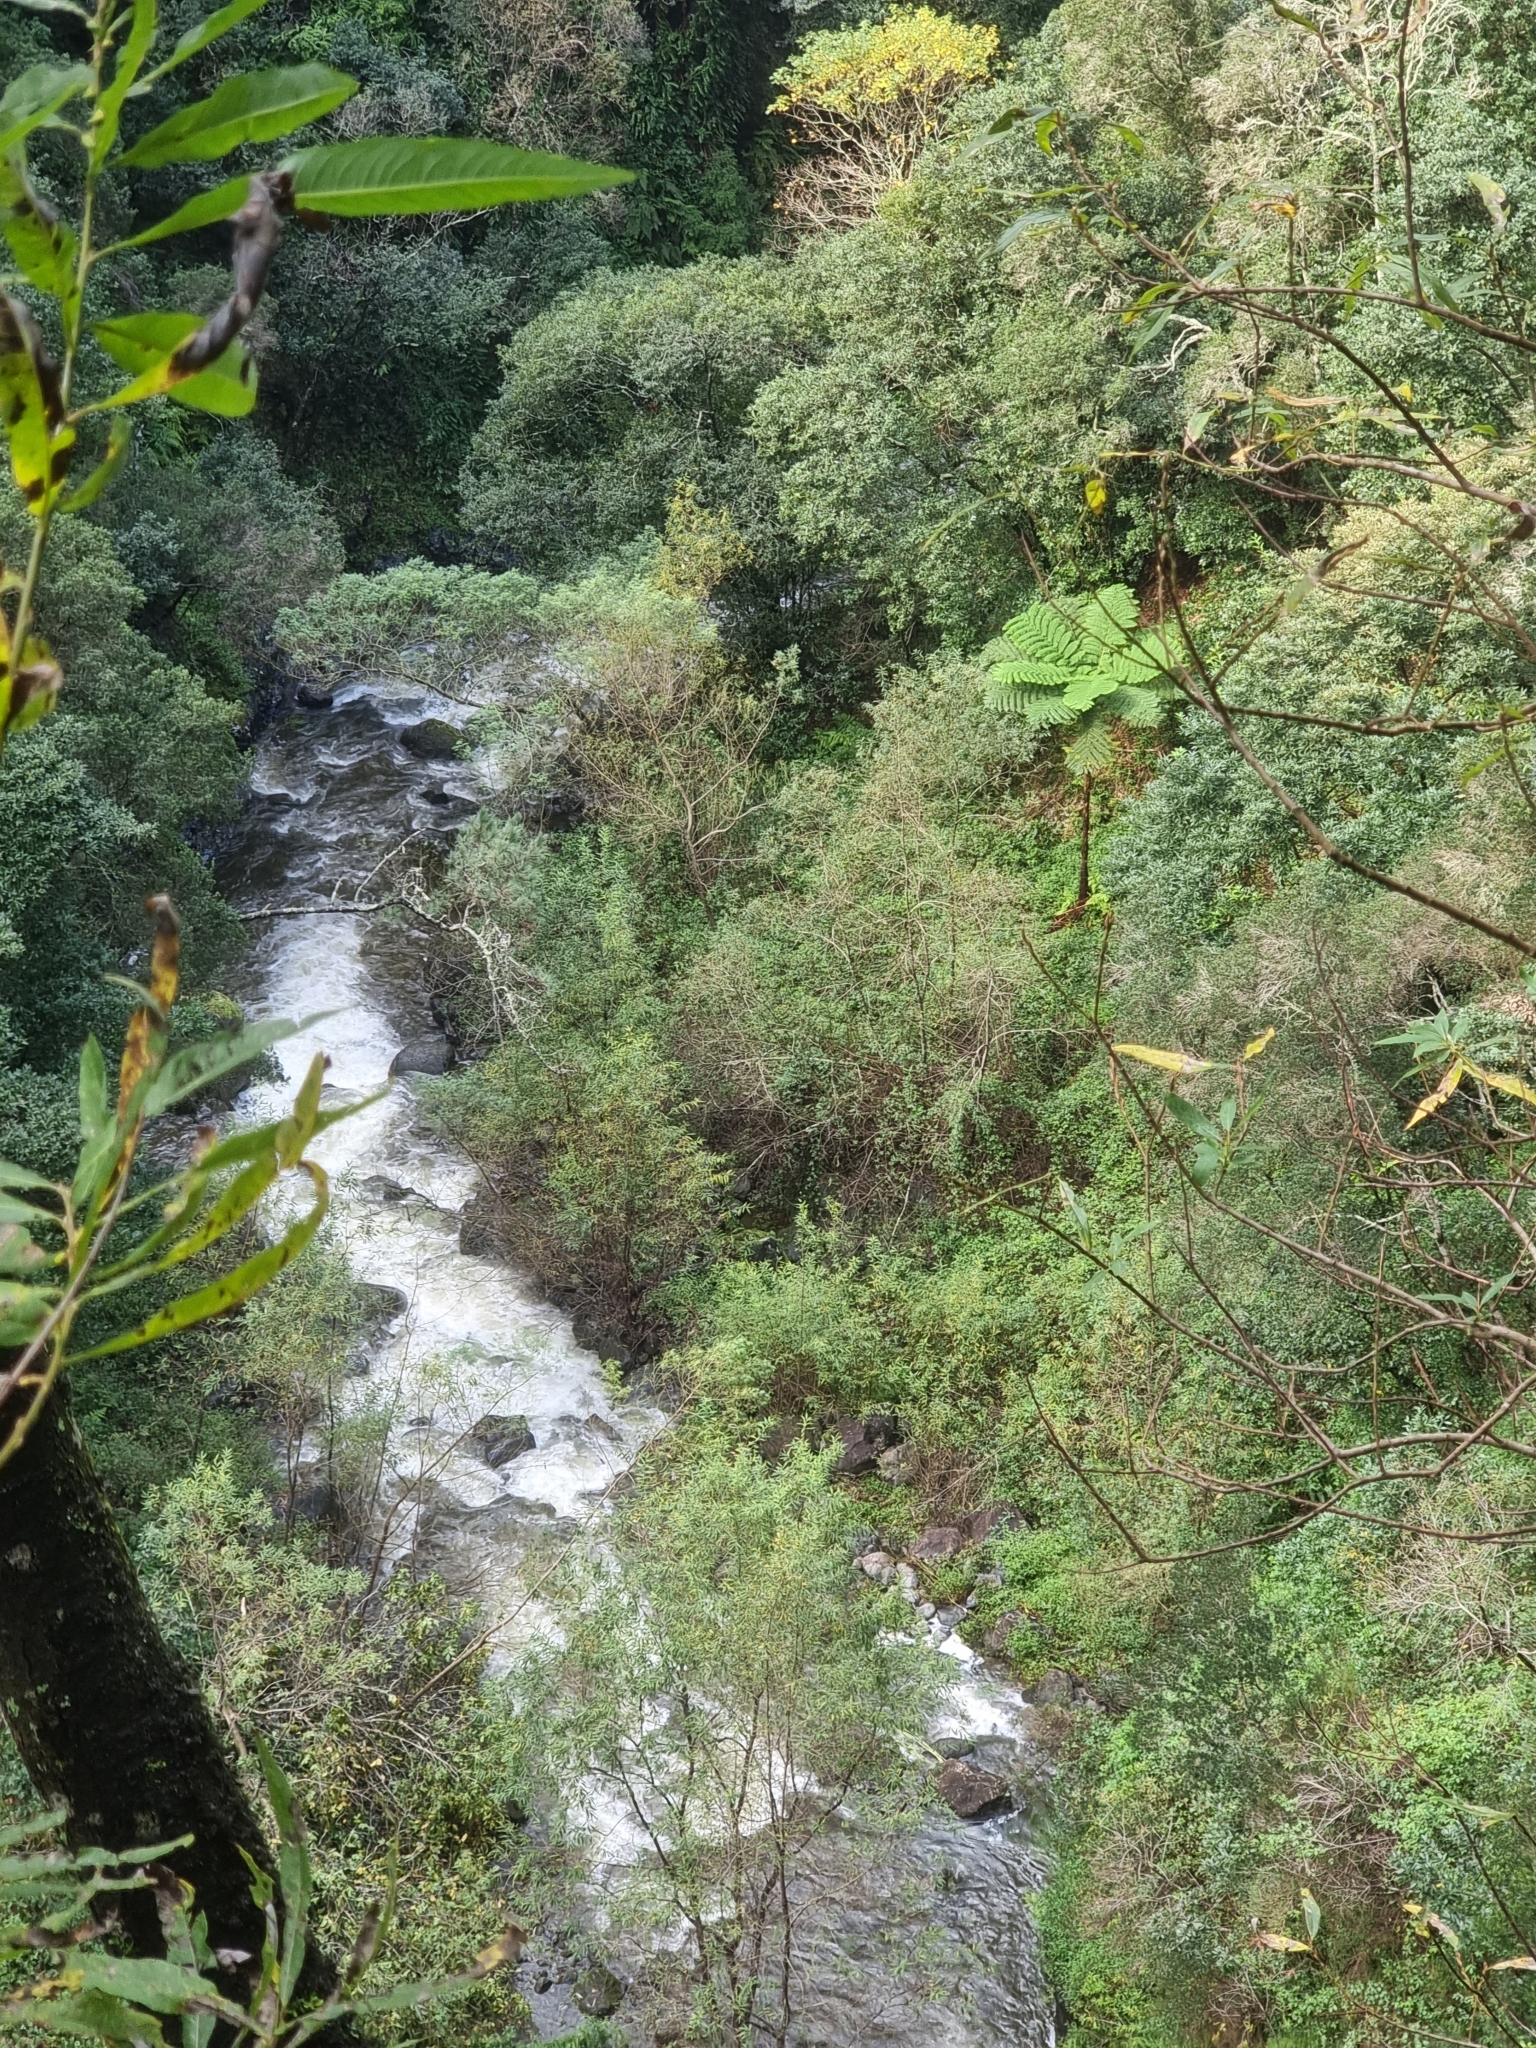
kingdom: Plantae
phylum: Tracheophyta
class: Polypodiopsida
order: Cyatheales
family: Cyatheaceae
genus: Sphaeropteris
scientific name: Sphaeropteris cooperi
